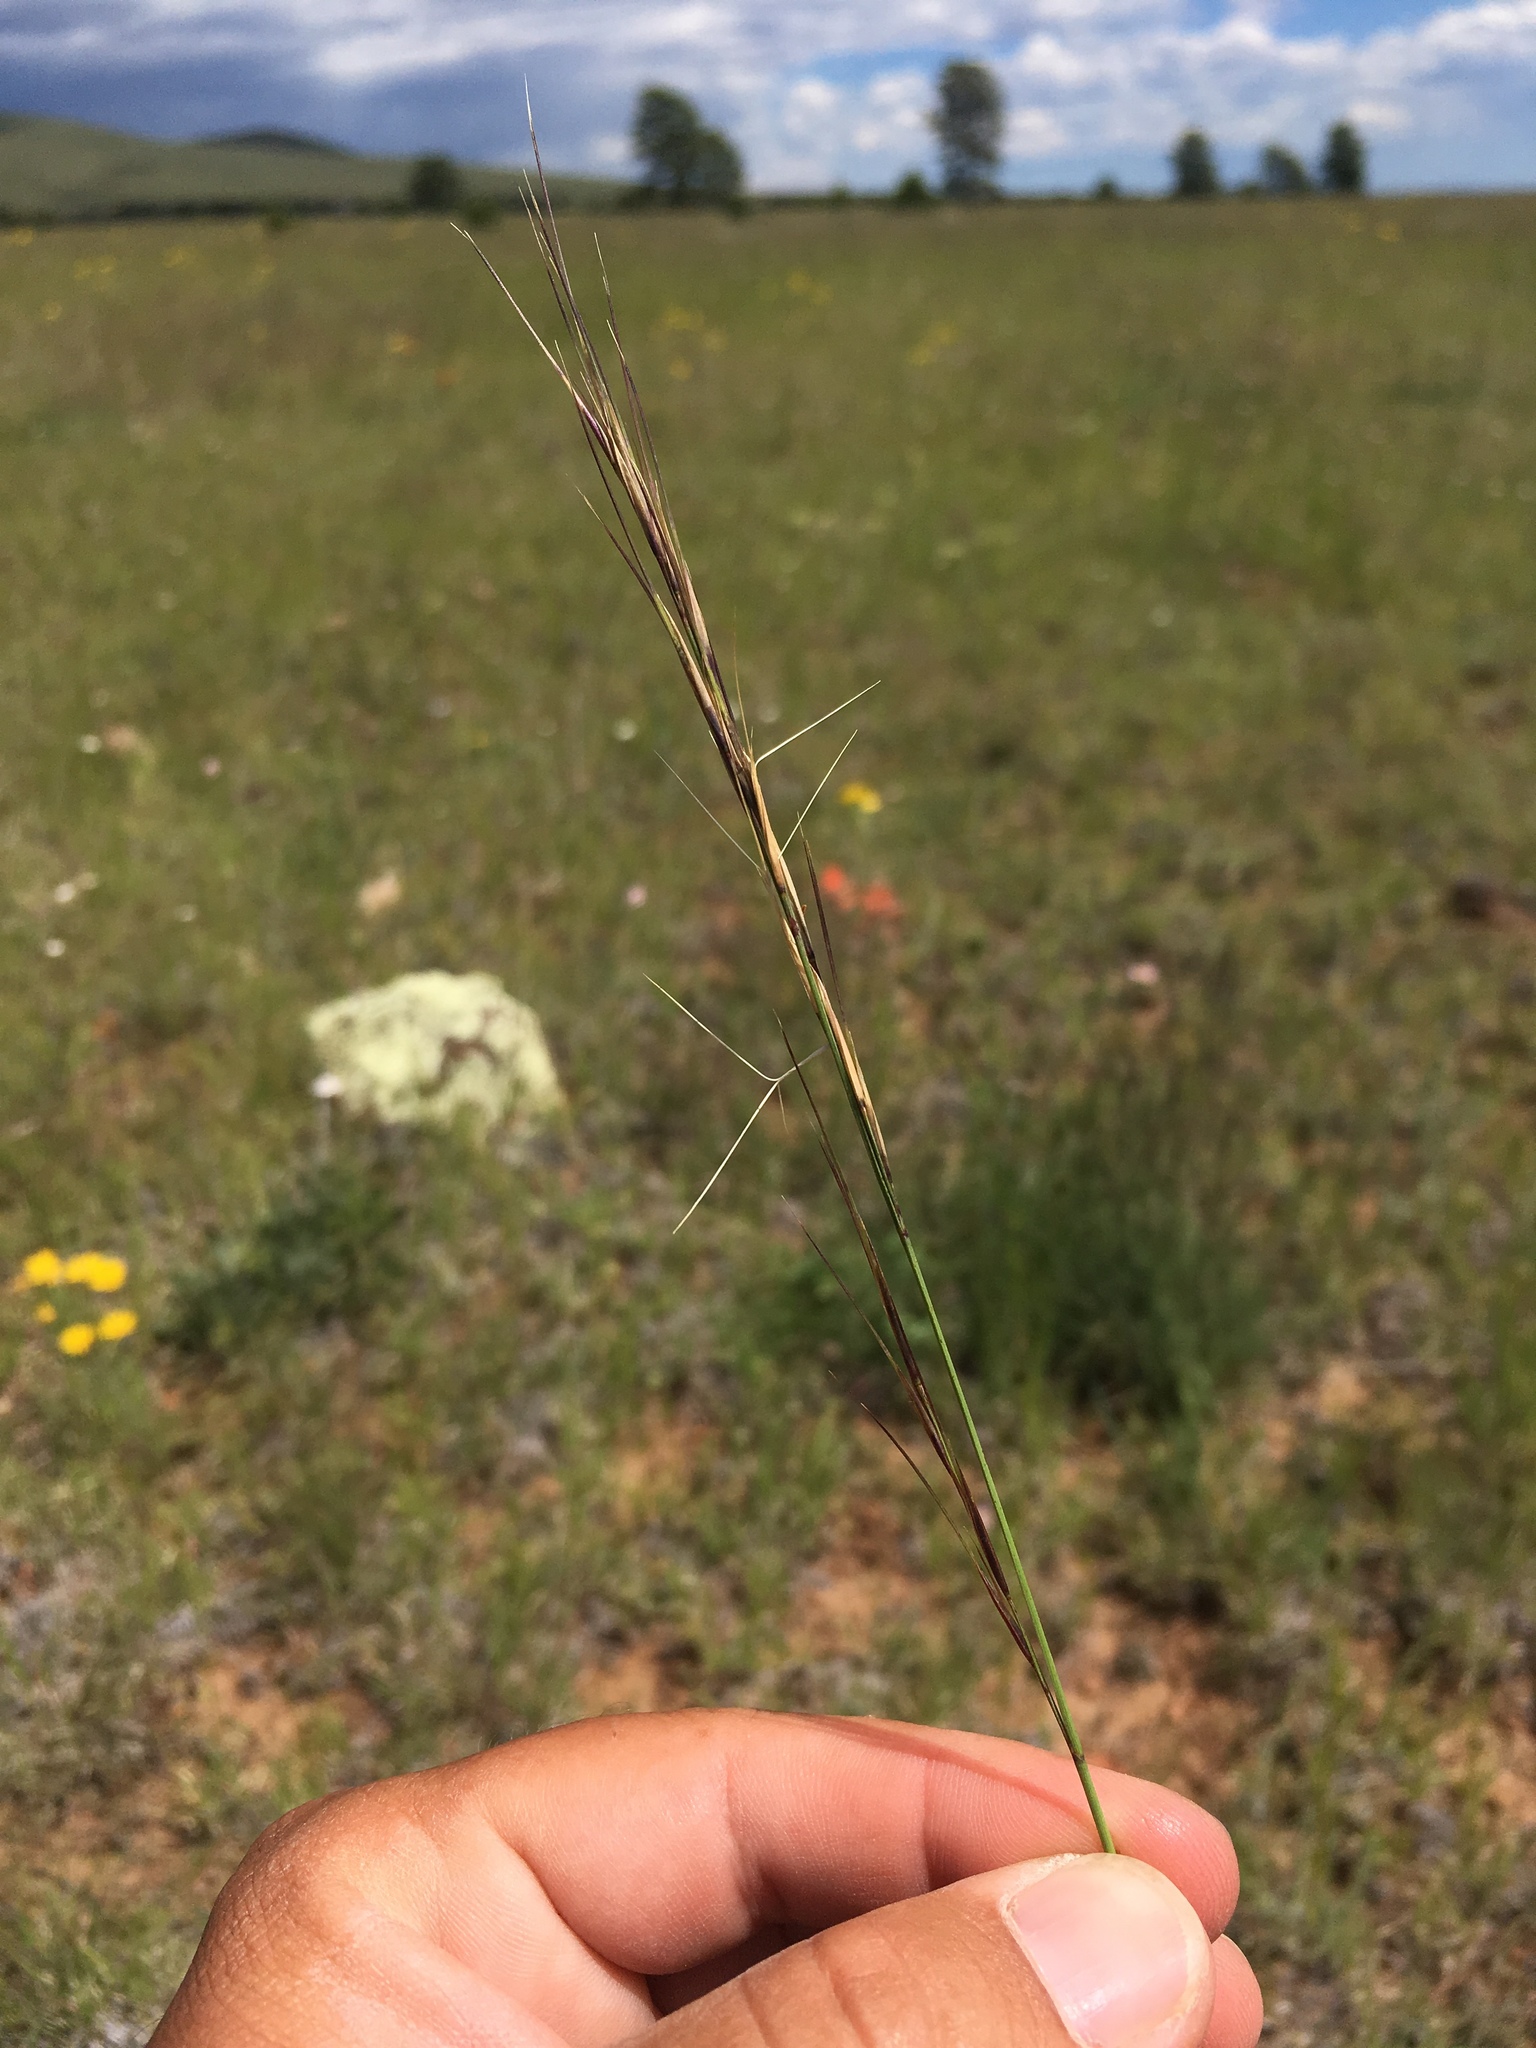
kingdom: Plantae
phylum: Tracheophyta
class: Liliopsida
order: Poales
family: Poaceae
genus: Aristida
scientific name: Aristida arizonica
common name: Arizona threeawn
